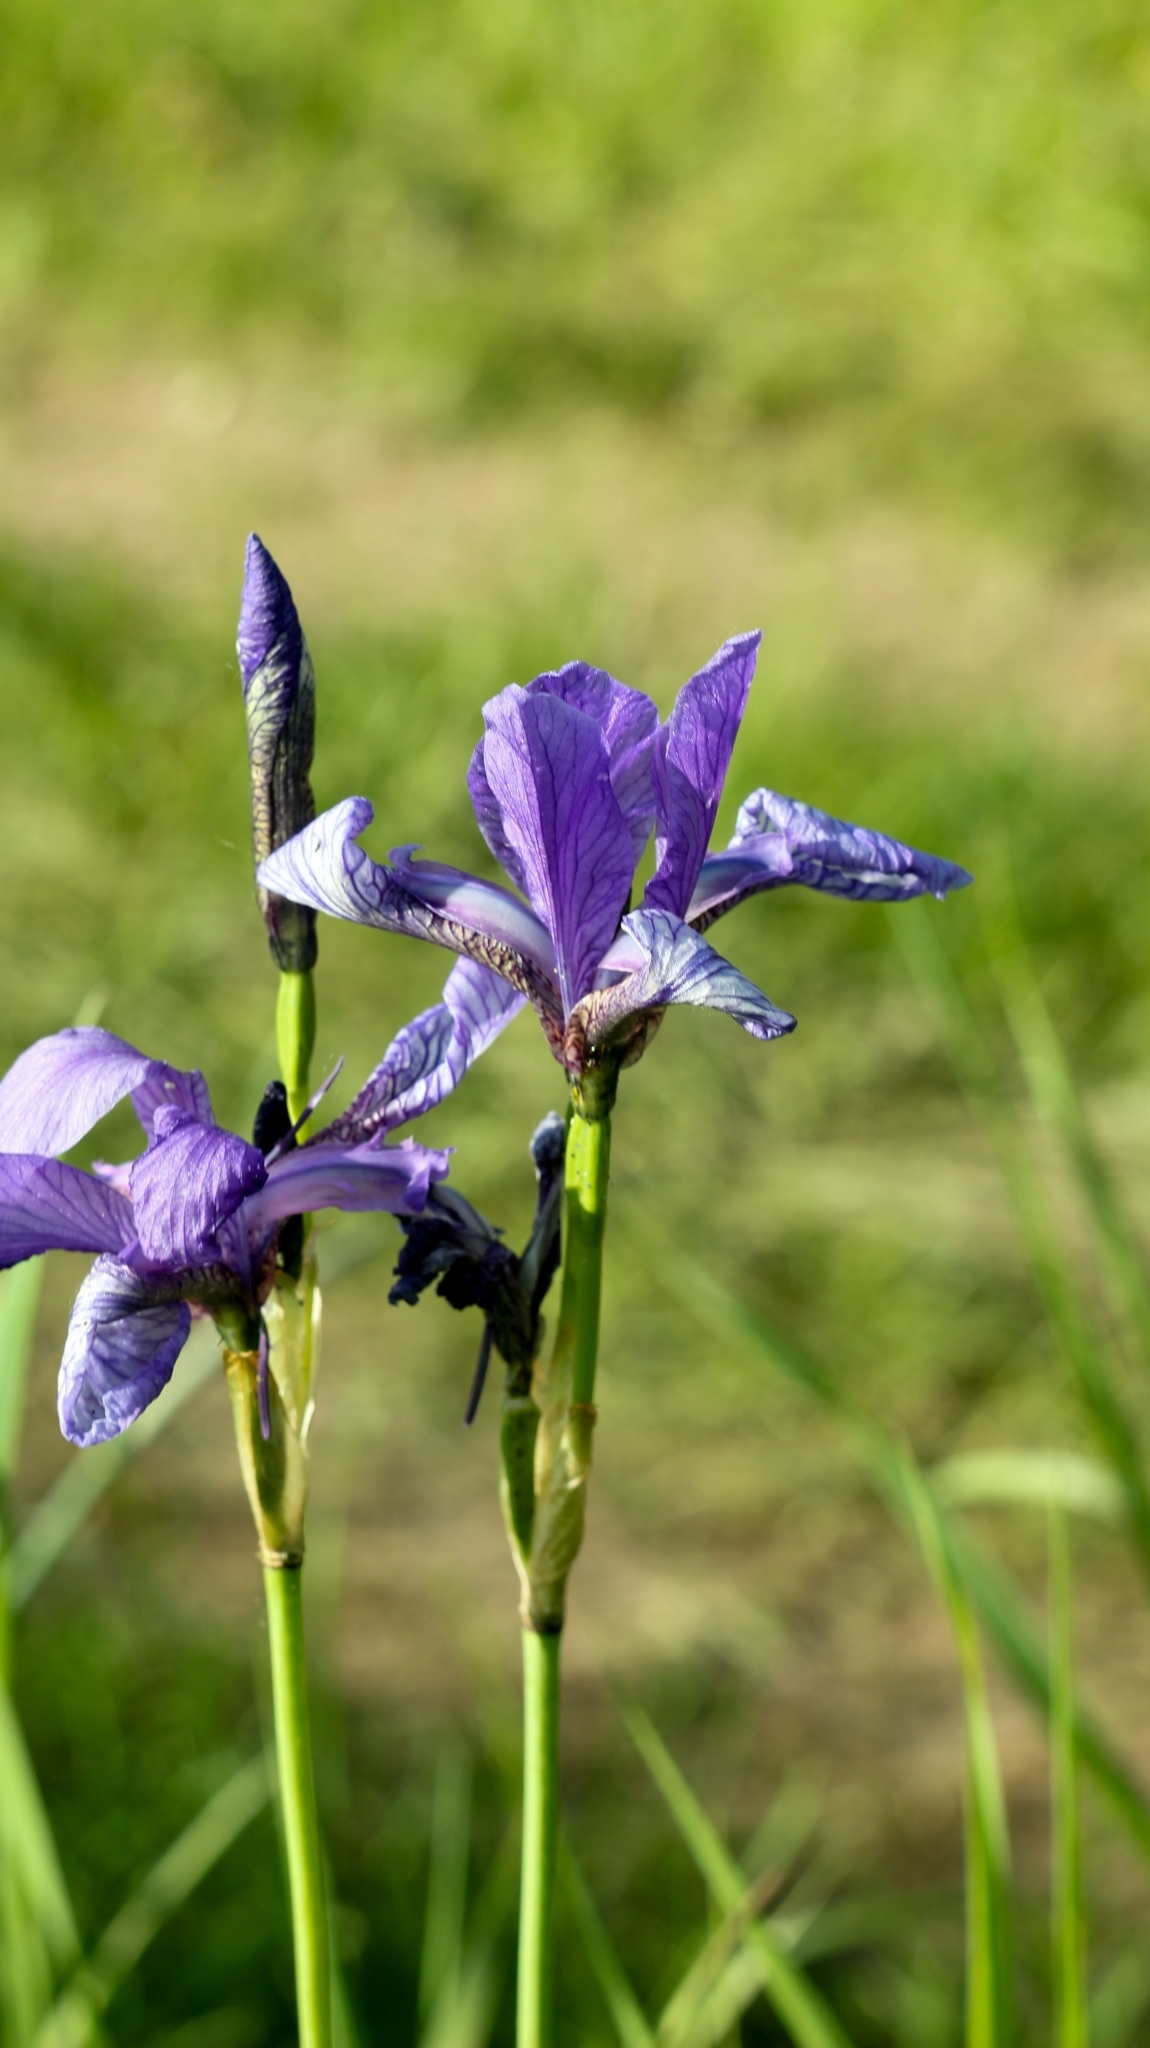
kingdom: Plantae
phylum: Tracheophyta
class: Liliopsida
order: Asparagales
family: Iridaceae
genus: Iris
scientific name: Iris sibirica
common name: Siberian iris
